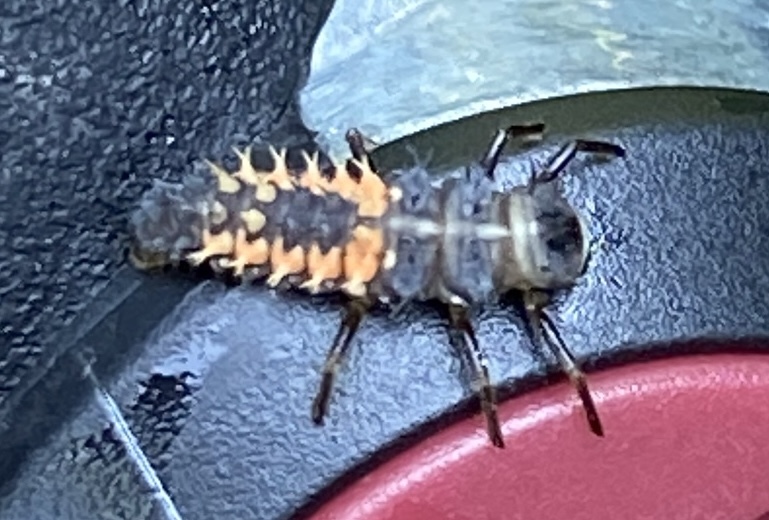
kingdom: Animalia
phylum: Arthropoda
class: Insecta
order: Coleoptera
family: Coccinellidae
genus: Harmonia
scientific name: Harmonia axyridis
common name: Harlequin ladybird
